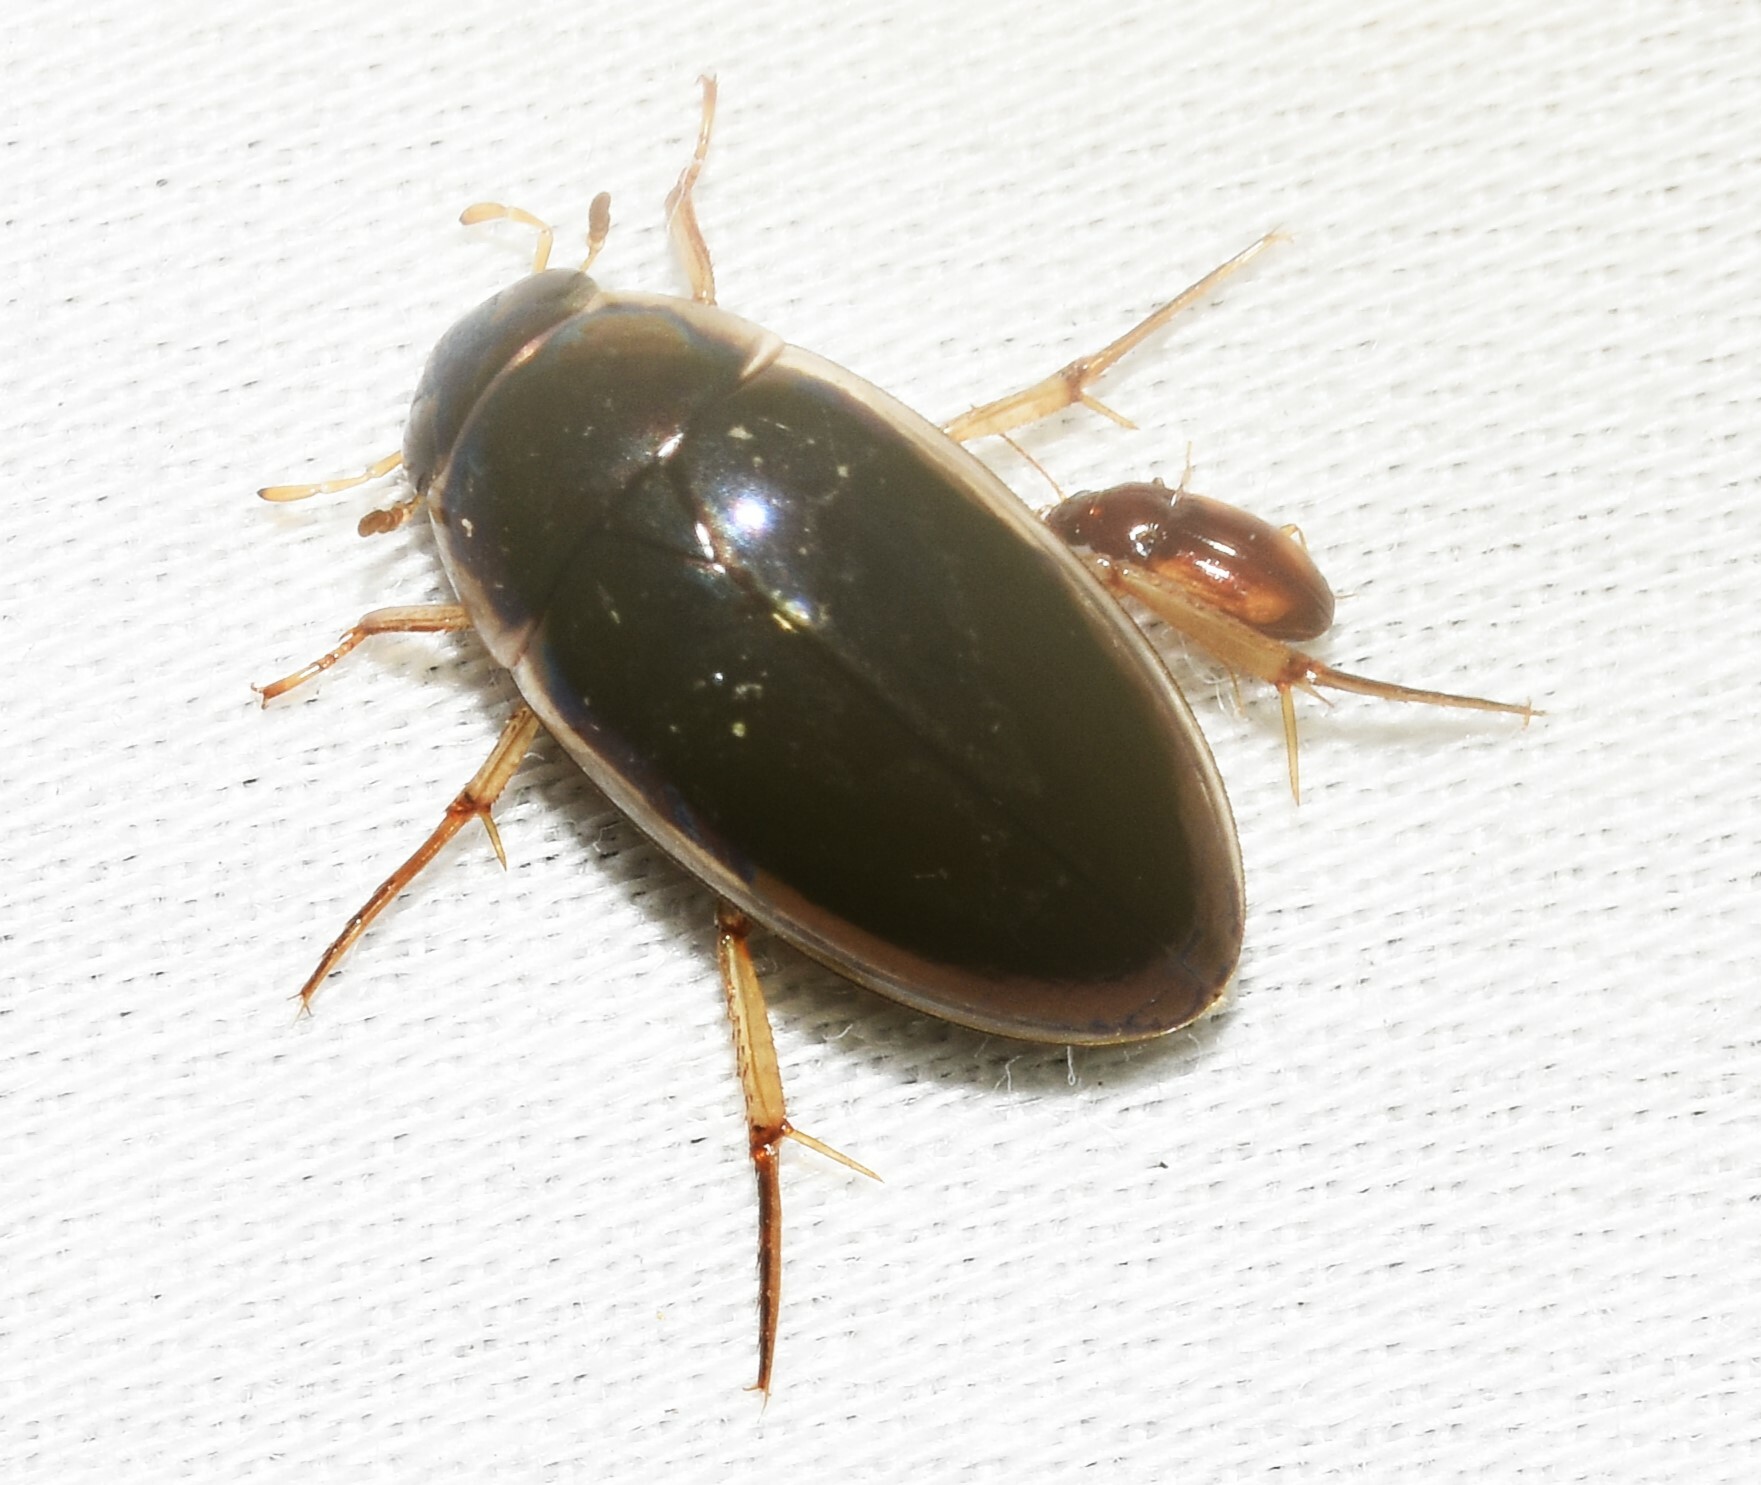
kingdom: Animalia
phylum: Arthropoda
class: Insecta
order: Coleoptera
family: Hydrophilidae
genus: Tropisternus
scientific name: Tropisternus lateralis
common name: Lateral-banded water scavenger beetle
